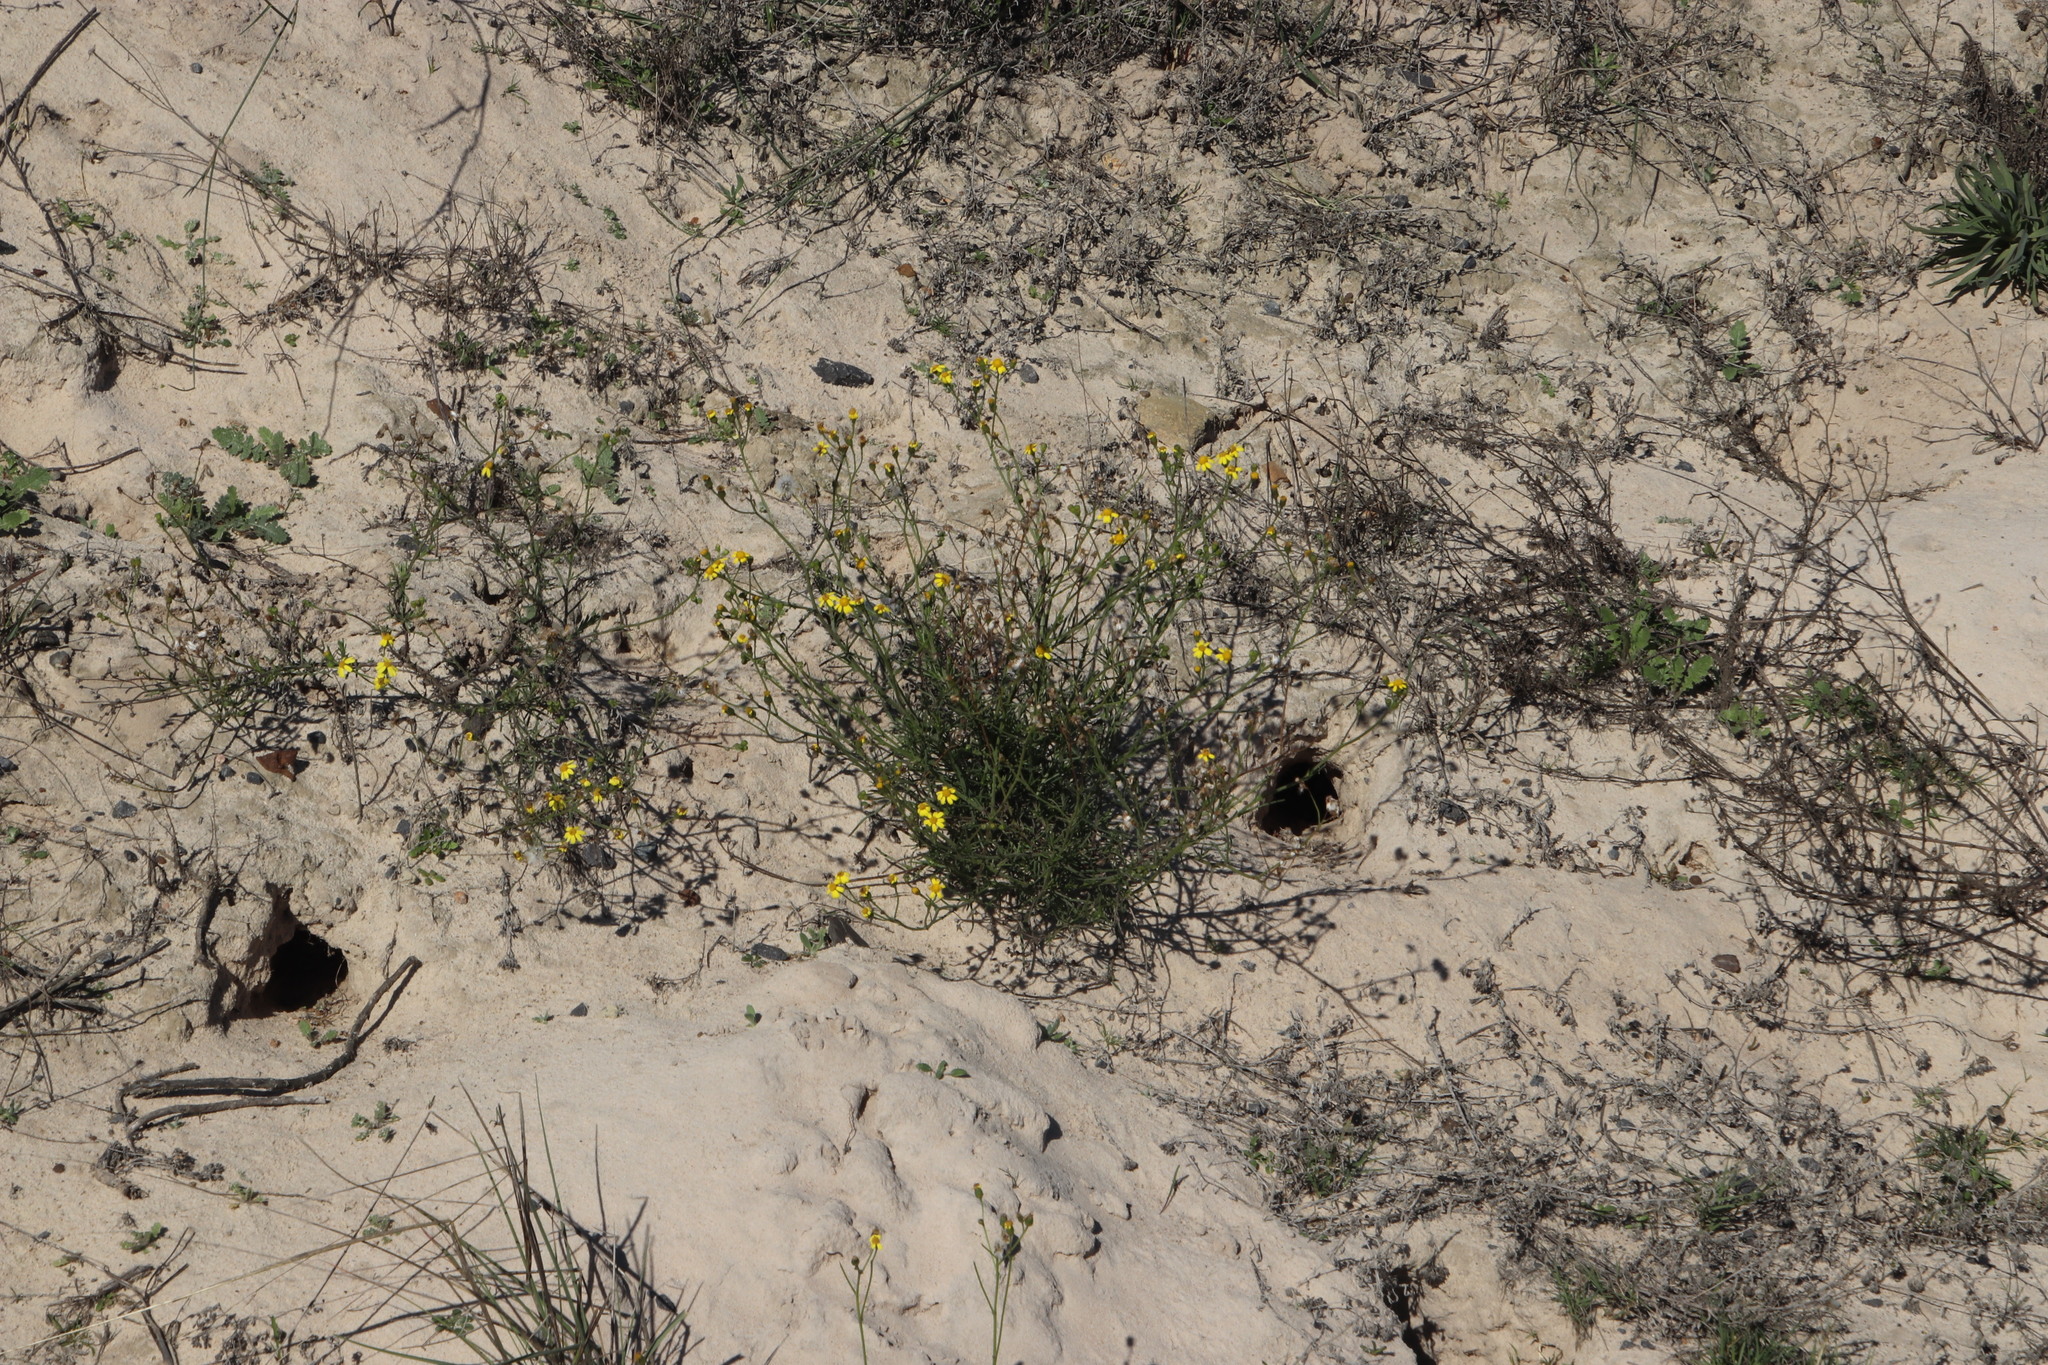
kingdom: Plantae
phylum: Tracheophyta
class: Magnoliopsida
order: Asterales
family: Asteraceae
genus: Leysera
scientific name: Leysera gnaphalodes
